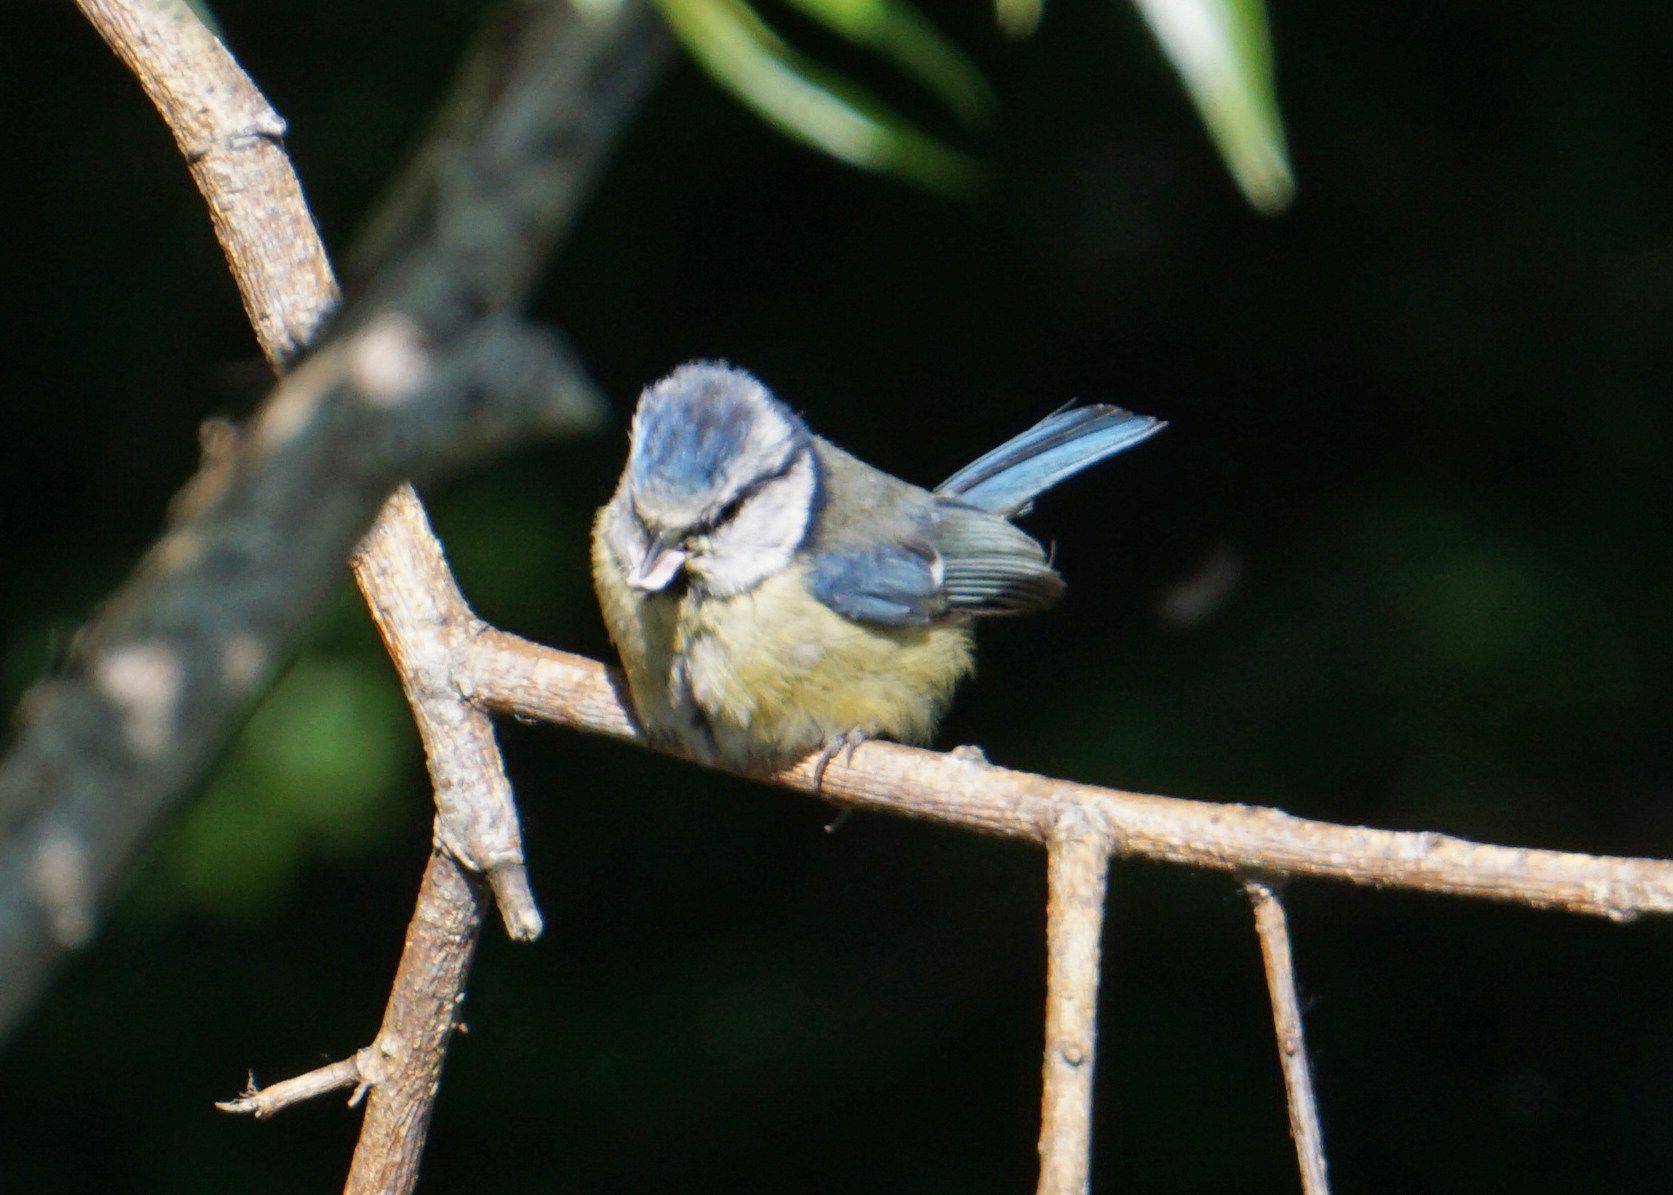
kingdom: Animalia
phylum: Chordata
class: Aves
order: Passeriformes
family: Paridae
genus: Cyanistes
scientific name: Cyanistes caeruleus
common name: Eurasian blue tit
